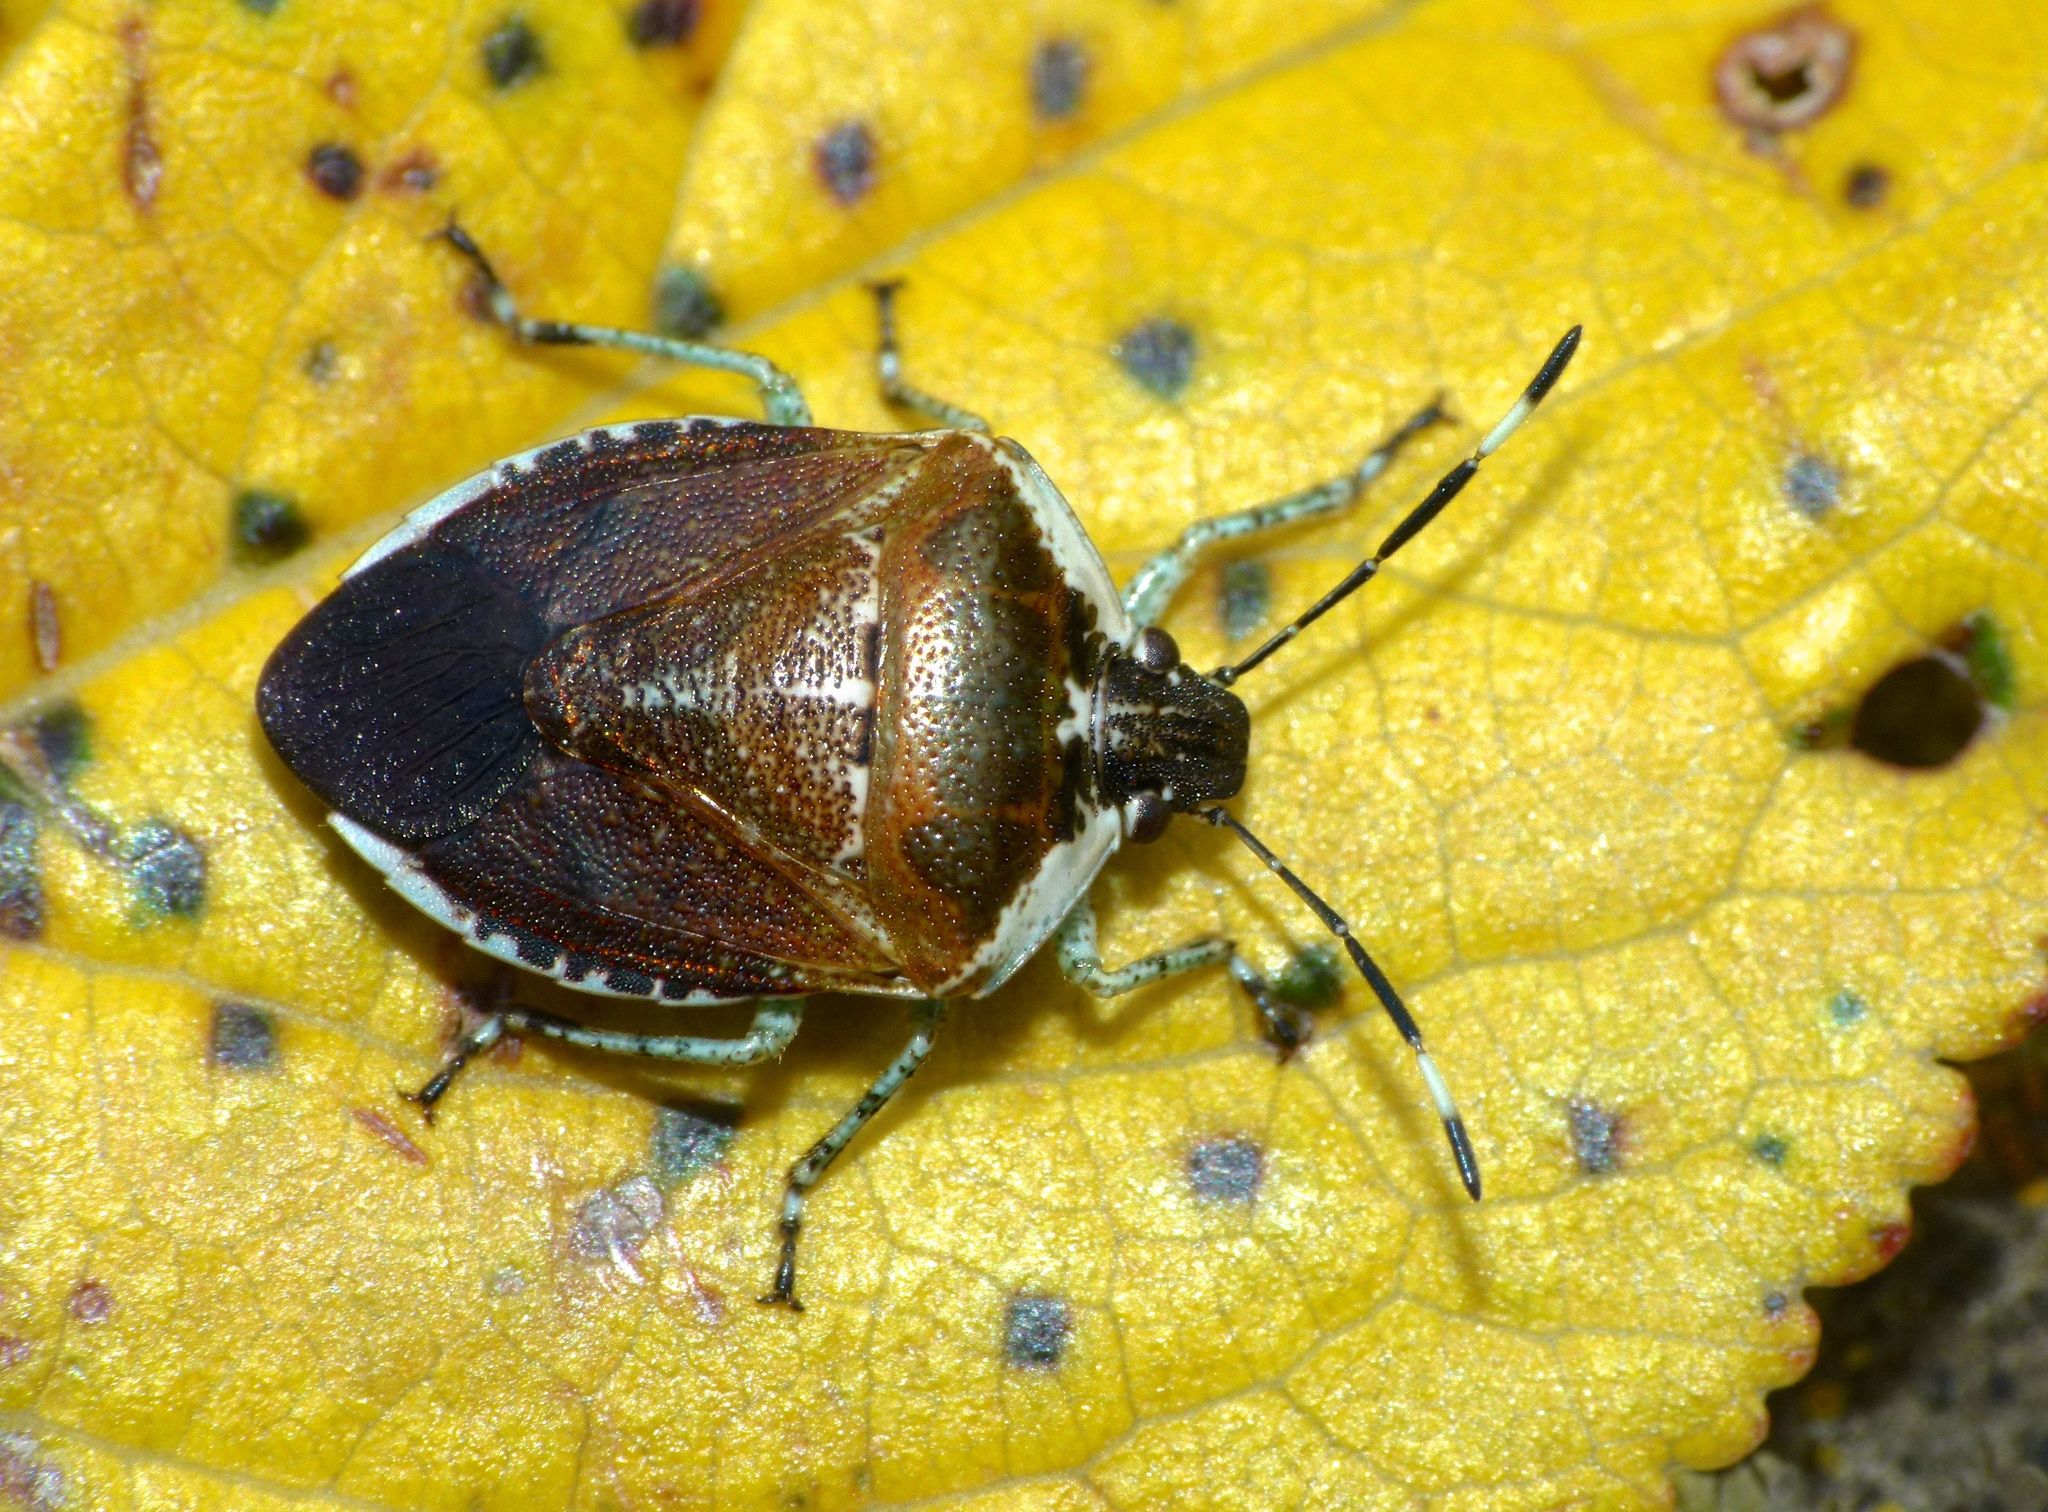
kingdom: Animalia
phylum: Arthropoda
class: Insecta
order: Hemiptera
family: Pentatomidae
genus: Monteithiella
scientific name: Monteithiella
